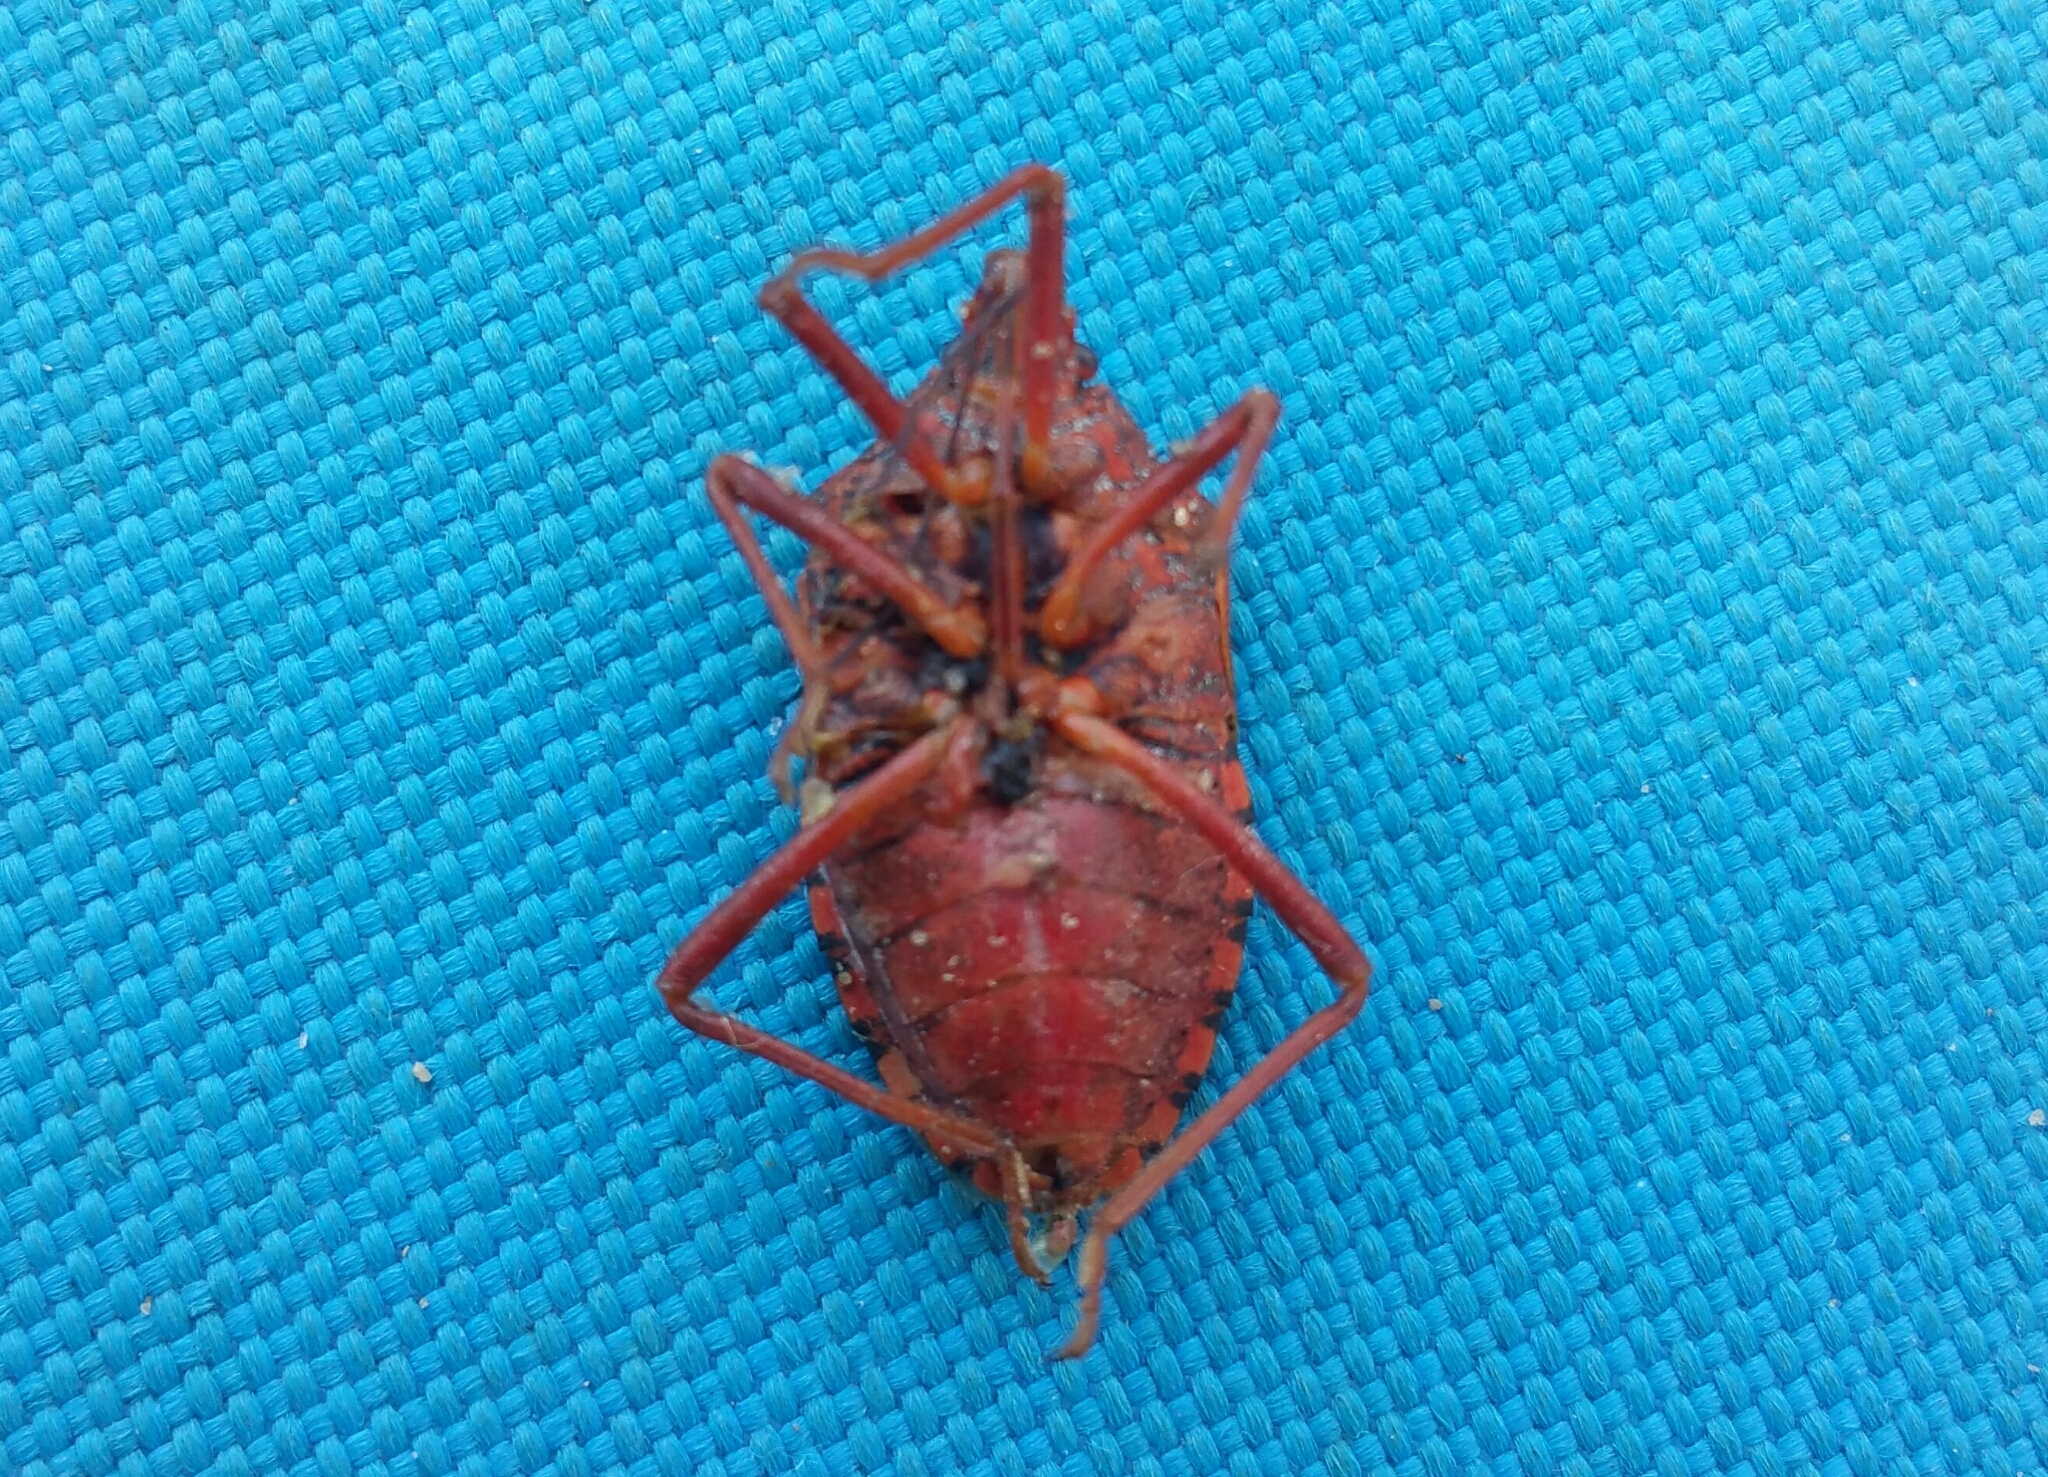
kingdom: Animalia
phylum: Arthropoda
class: Insecta
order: Hemiptera
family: Pentatomidae
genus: Apodiphus
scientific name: Apodiphus
